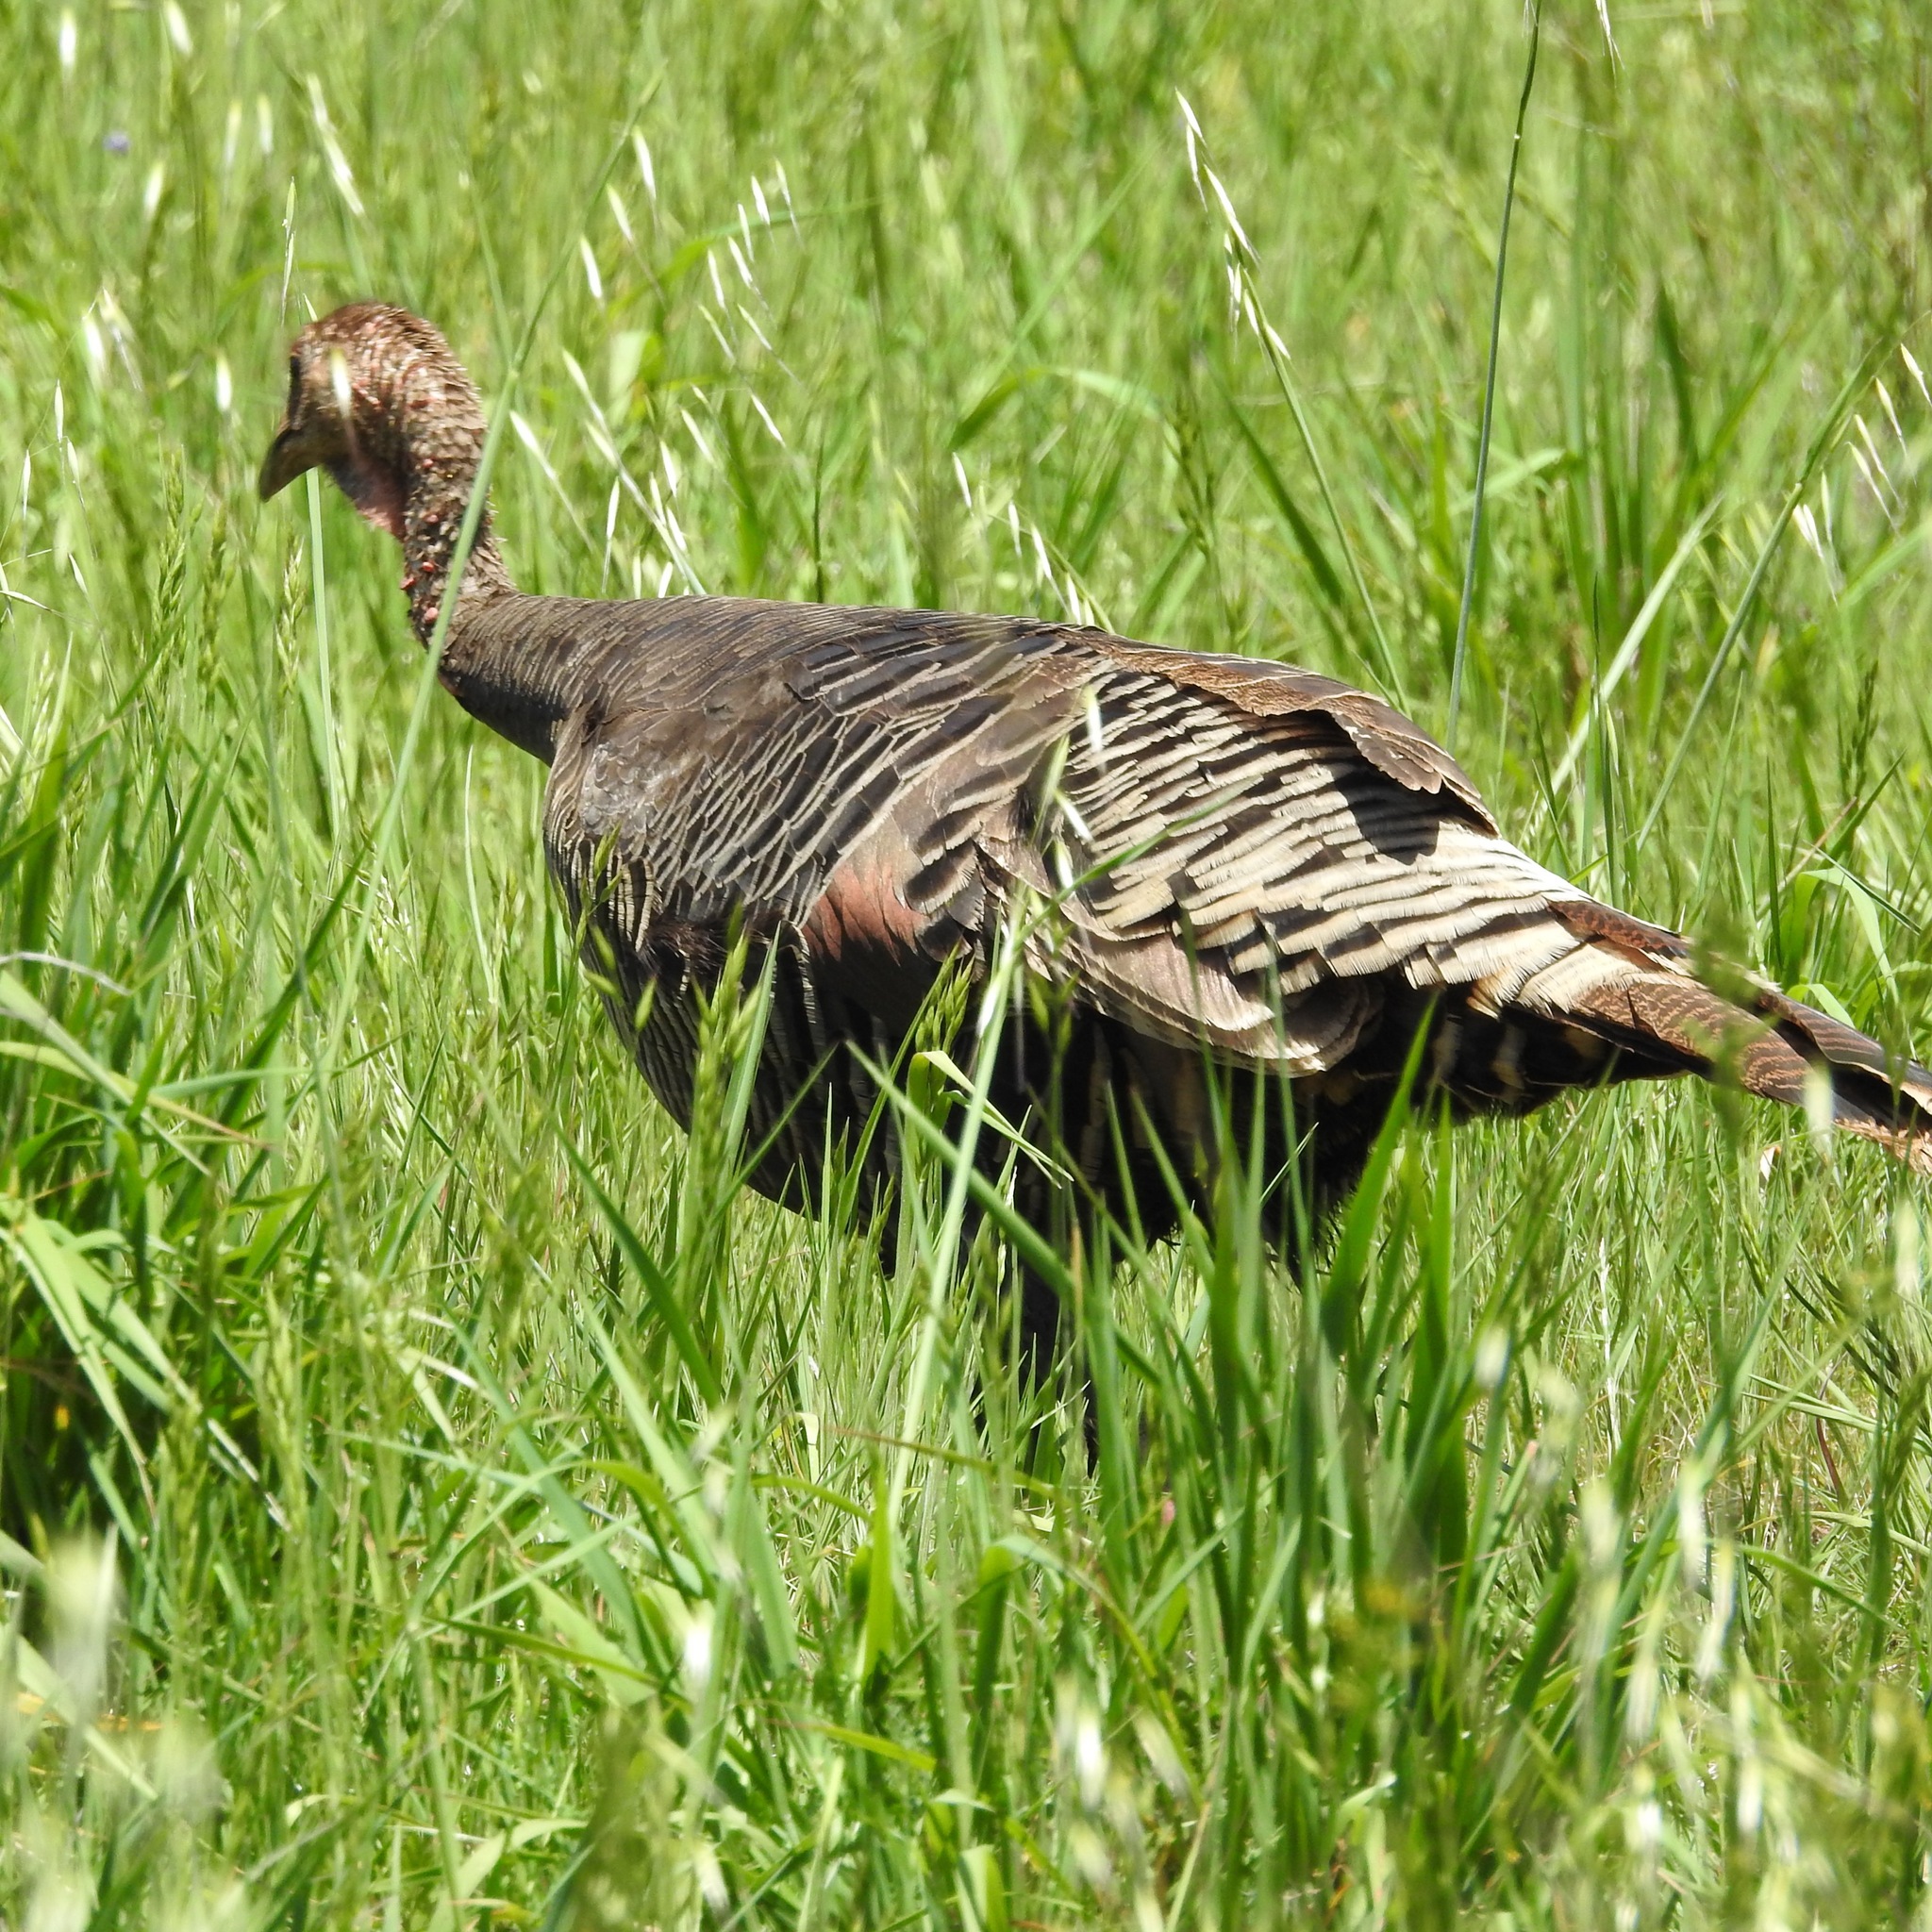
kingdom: Animalia
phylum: Chordata
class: Aves
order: Galliformes
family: Phasianidae
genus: Meleagris
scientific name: Meleagris gallopavo
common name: Wild turkey
